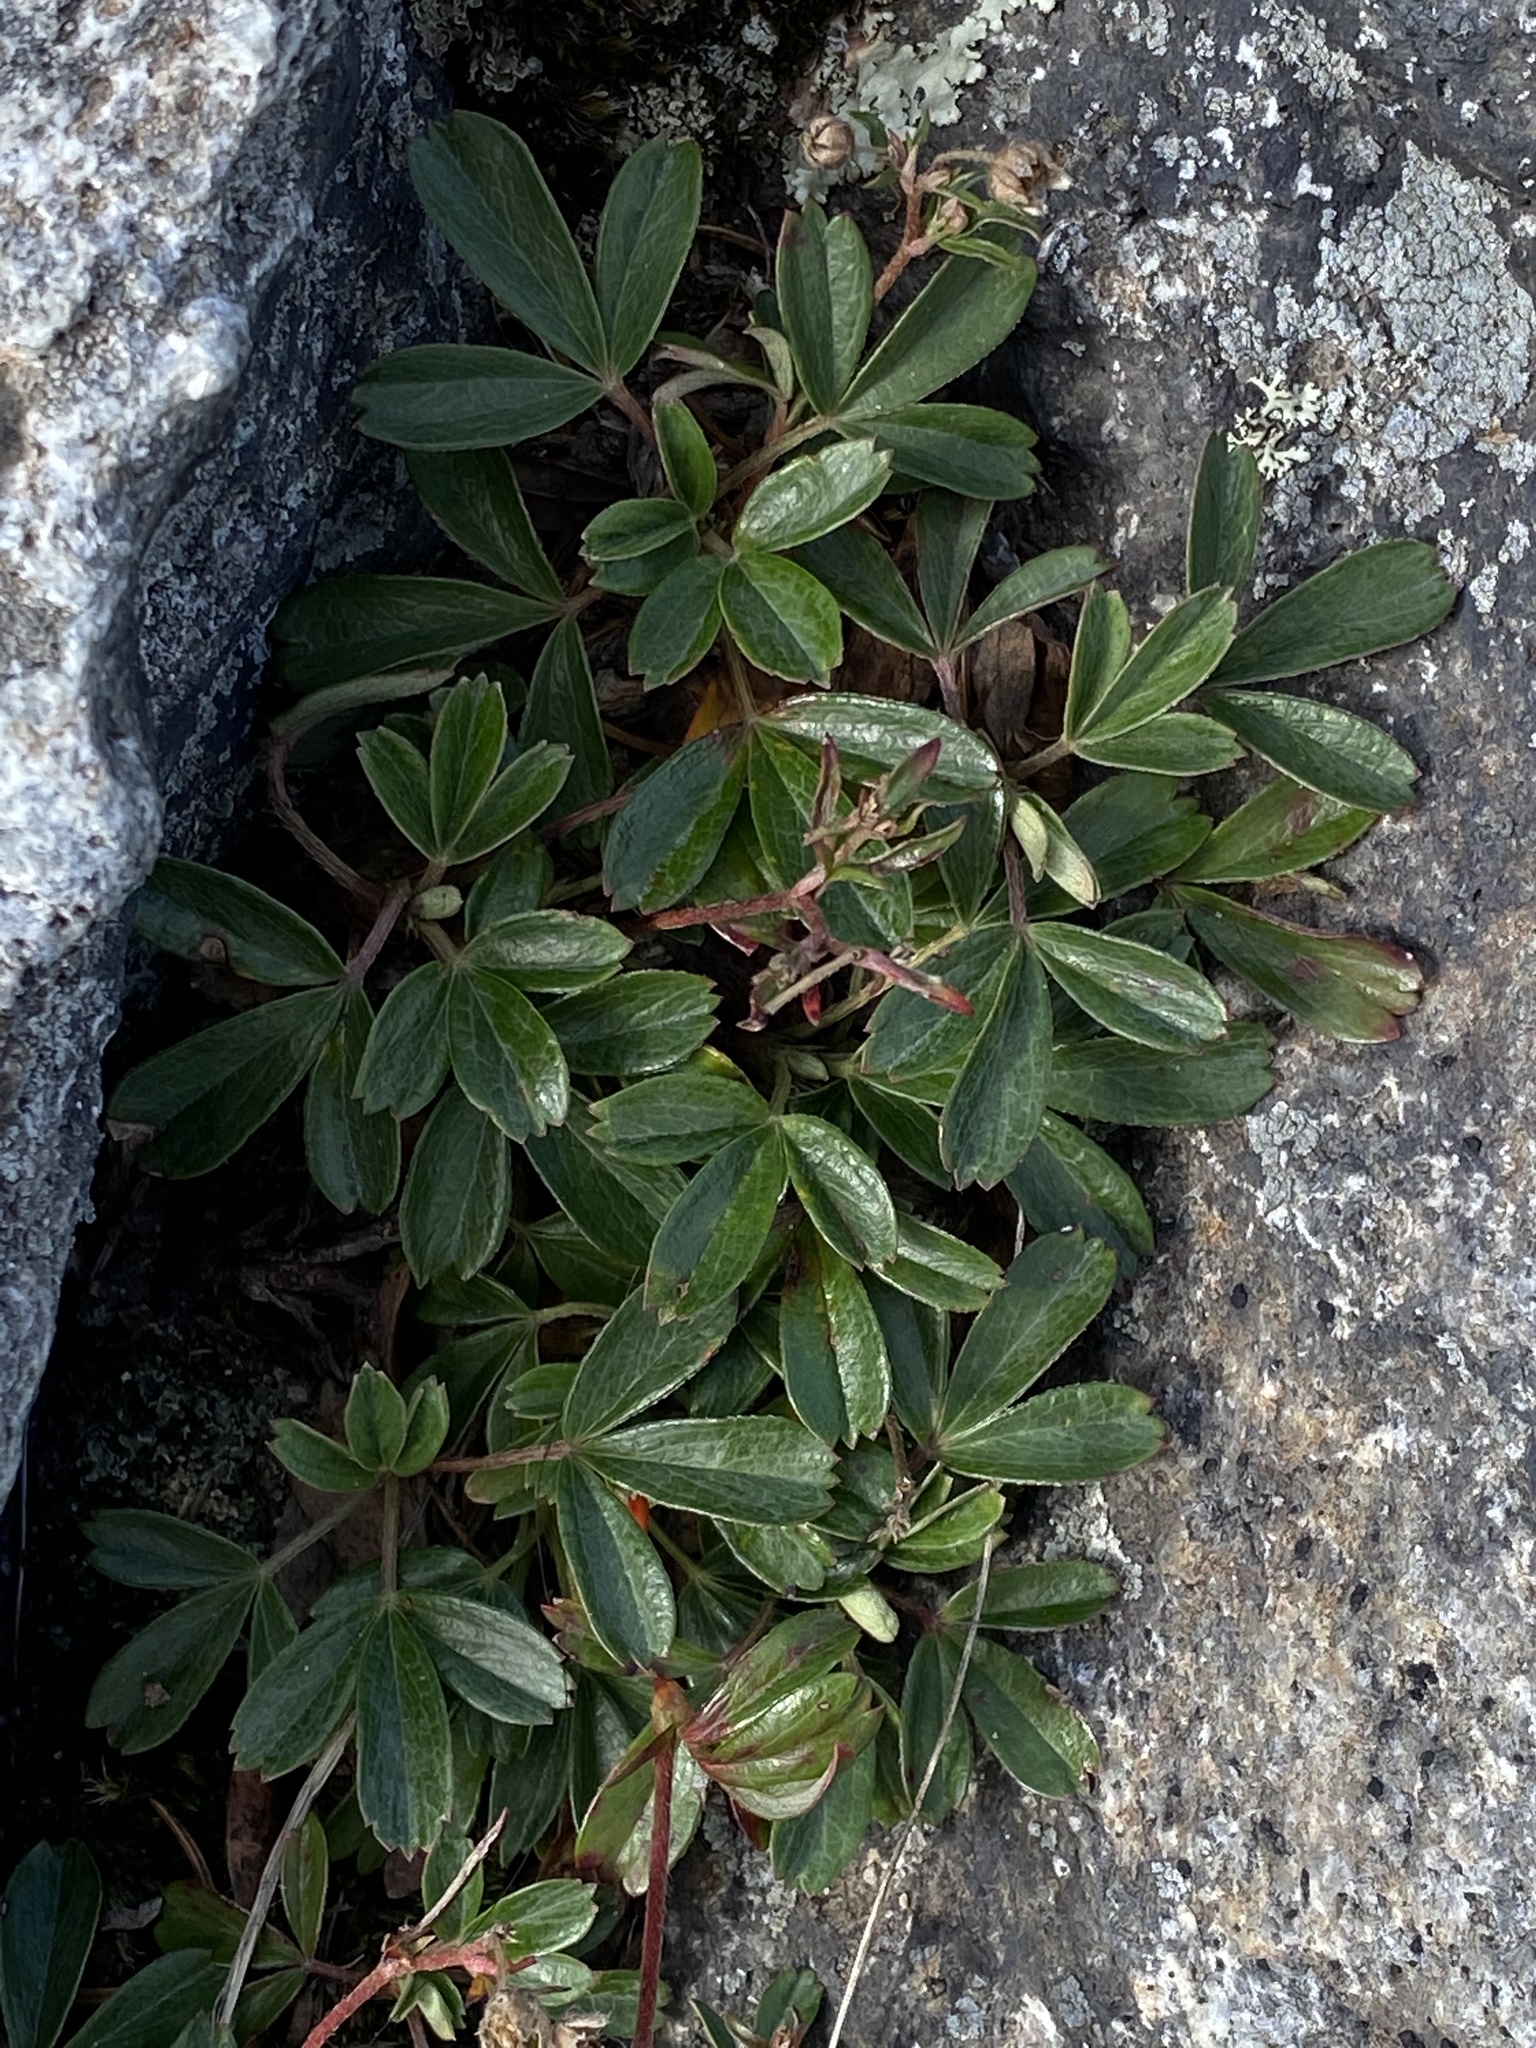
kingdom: Plantae
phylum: Tracheophyta
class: Magnoliopsida
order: Rosales
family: Rosaceae
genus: Sibbaldia
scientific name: Sibbaldia tridentata
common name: Three-toothed cinquefoil
